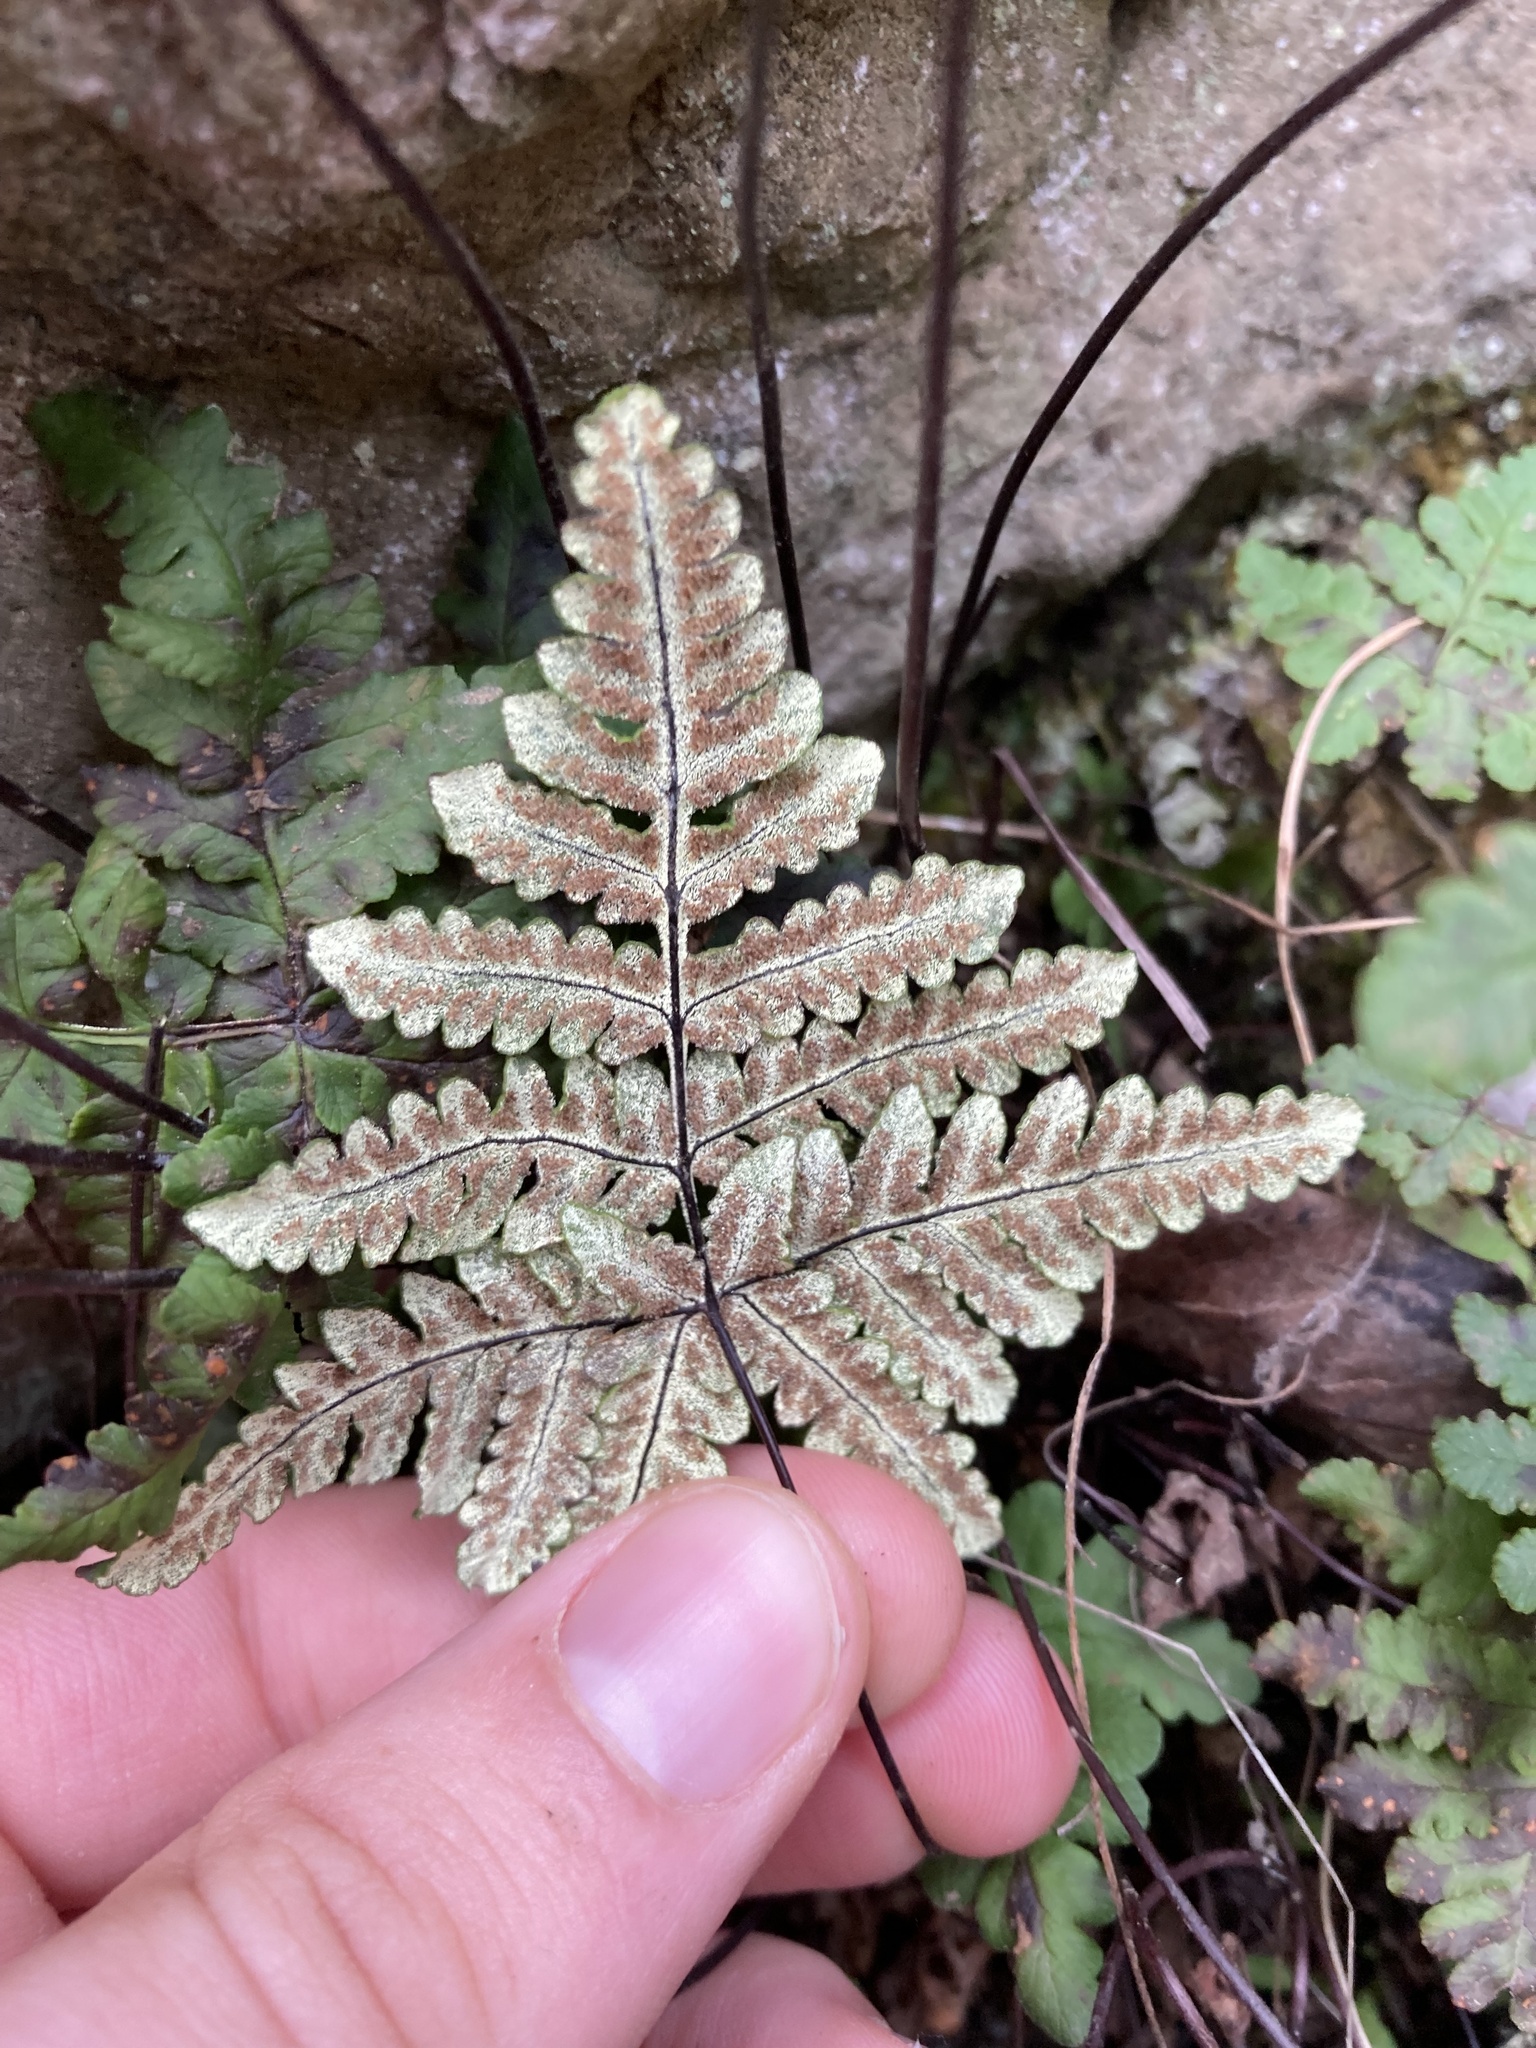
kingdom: Plantae
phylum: Tracheophyta
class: Polypodiopsida
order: Polypodiales
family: Pteridaceae
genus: Pentagramma
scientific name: Pentagramma triangularis
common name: Gold fern
